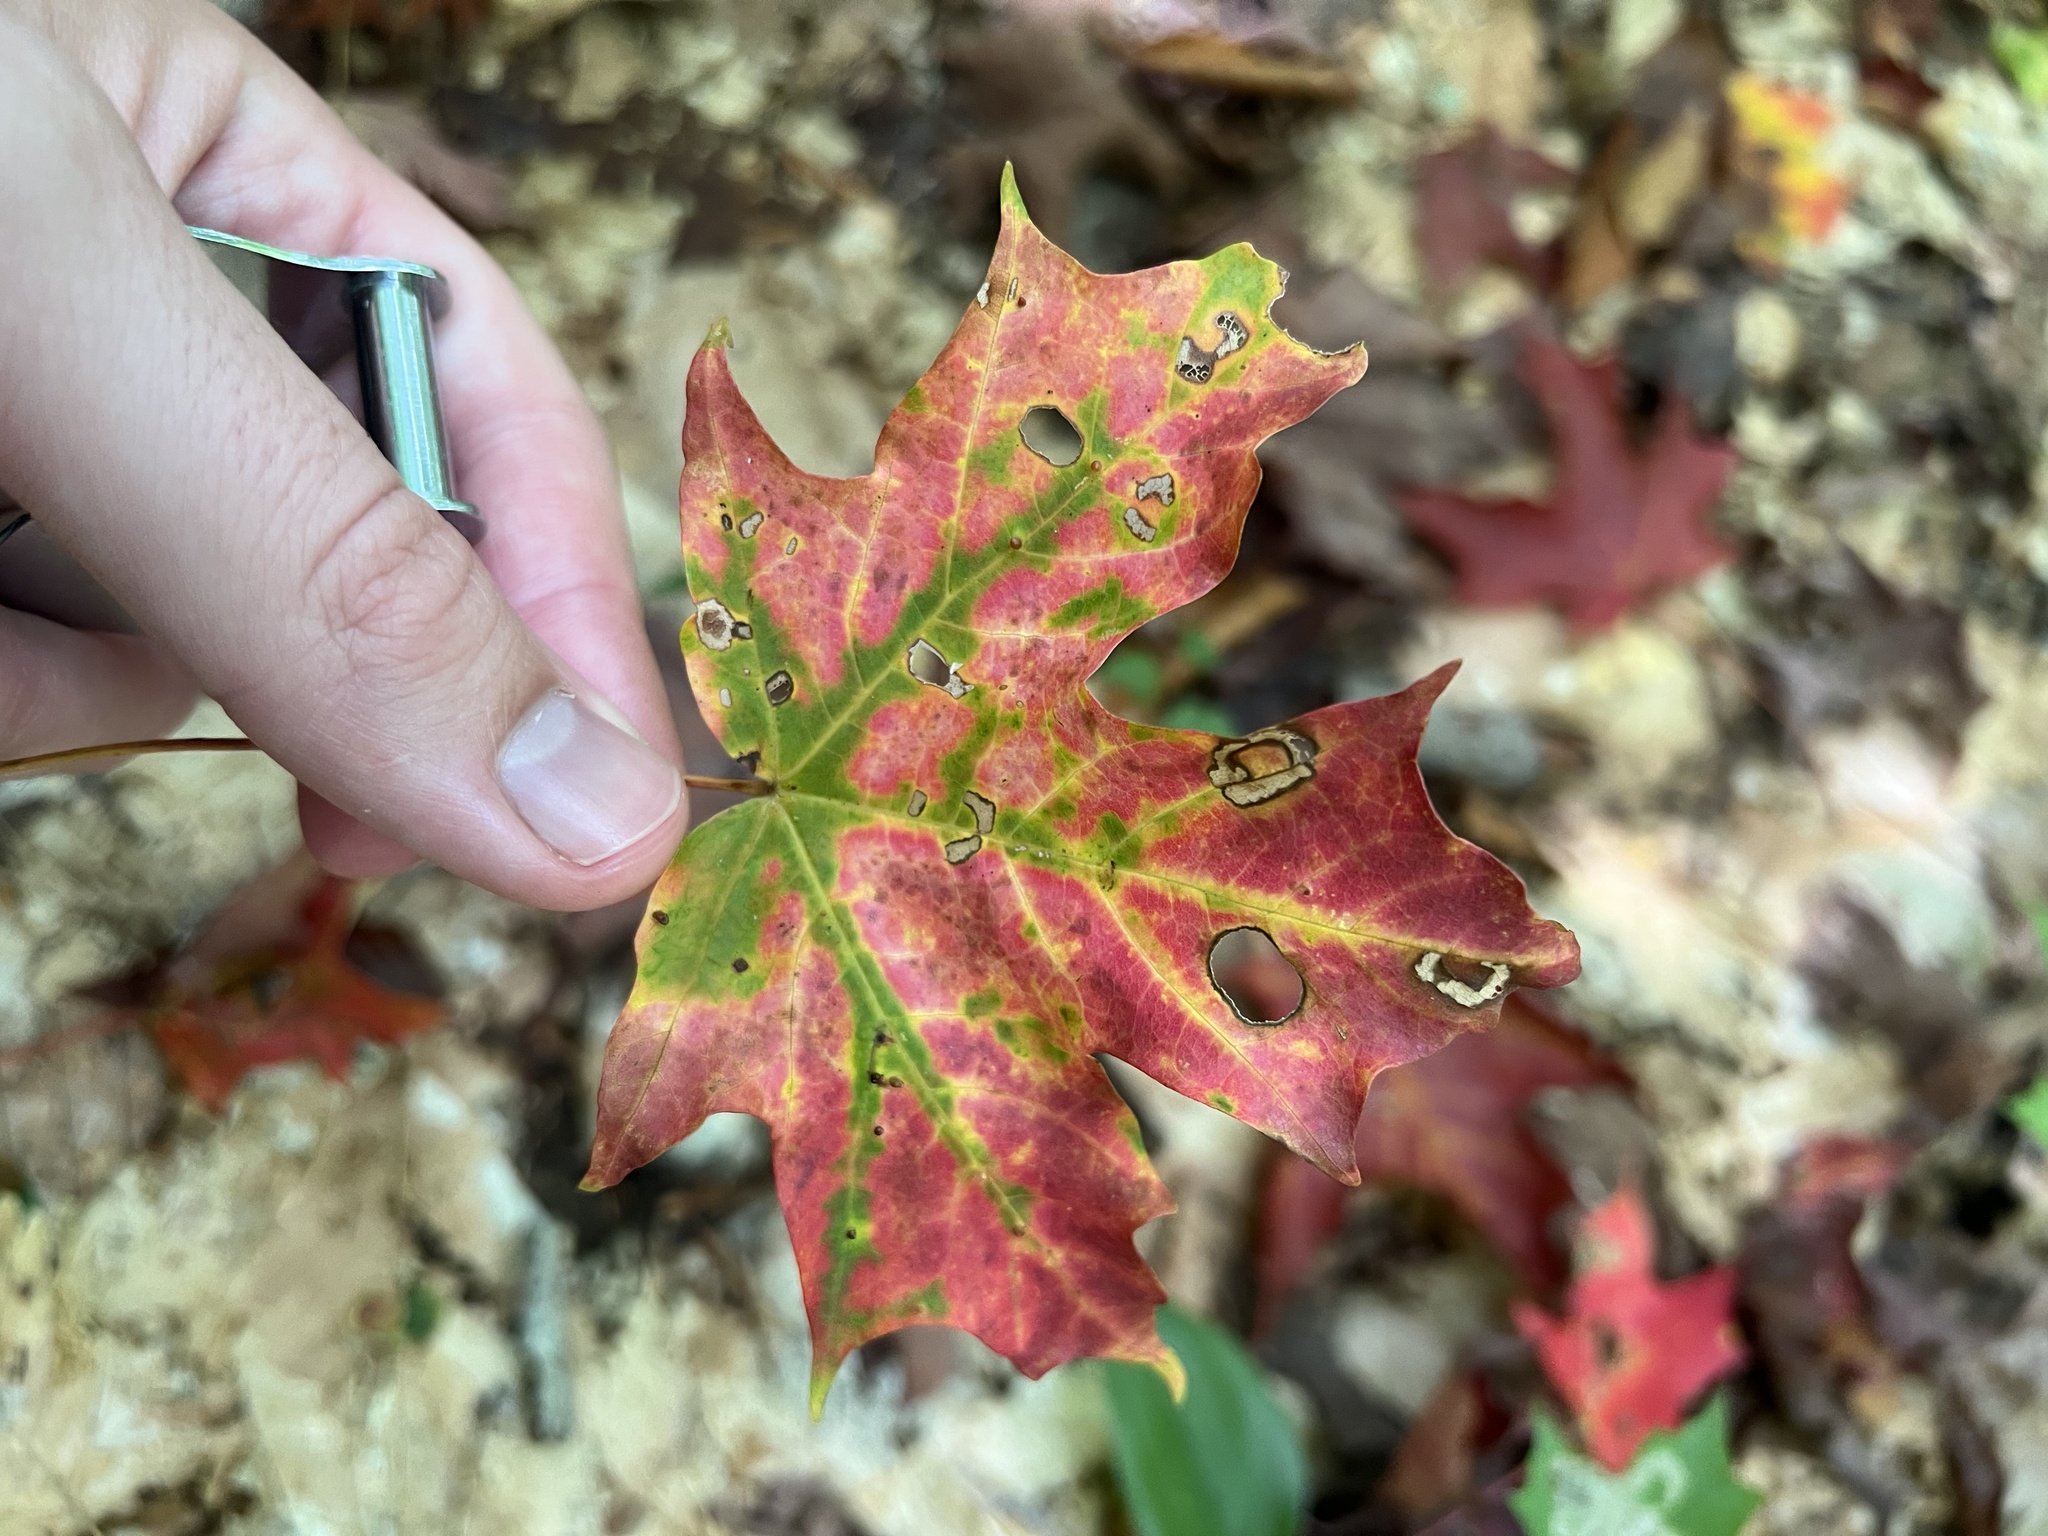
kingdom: Plantae
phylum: Tracheophyta
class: Magnoliopsida
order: Sapindales
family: Sapindaceae
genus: Acer
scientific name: Acer saccharum
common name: Sugar maple
